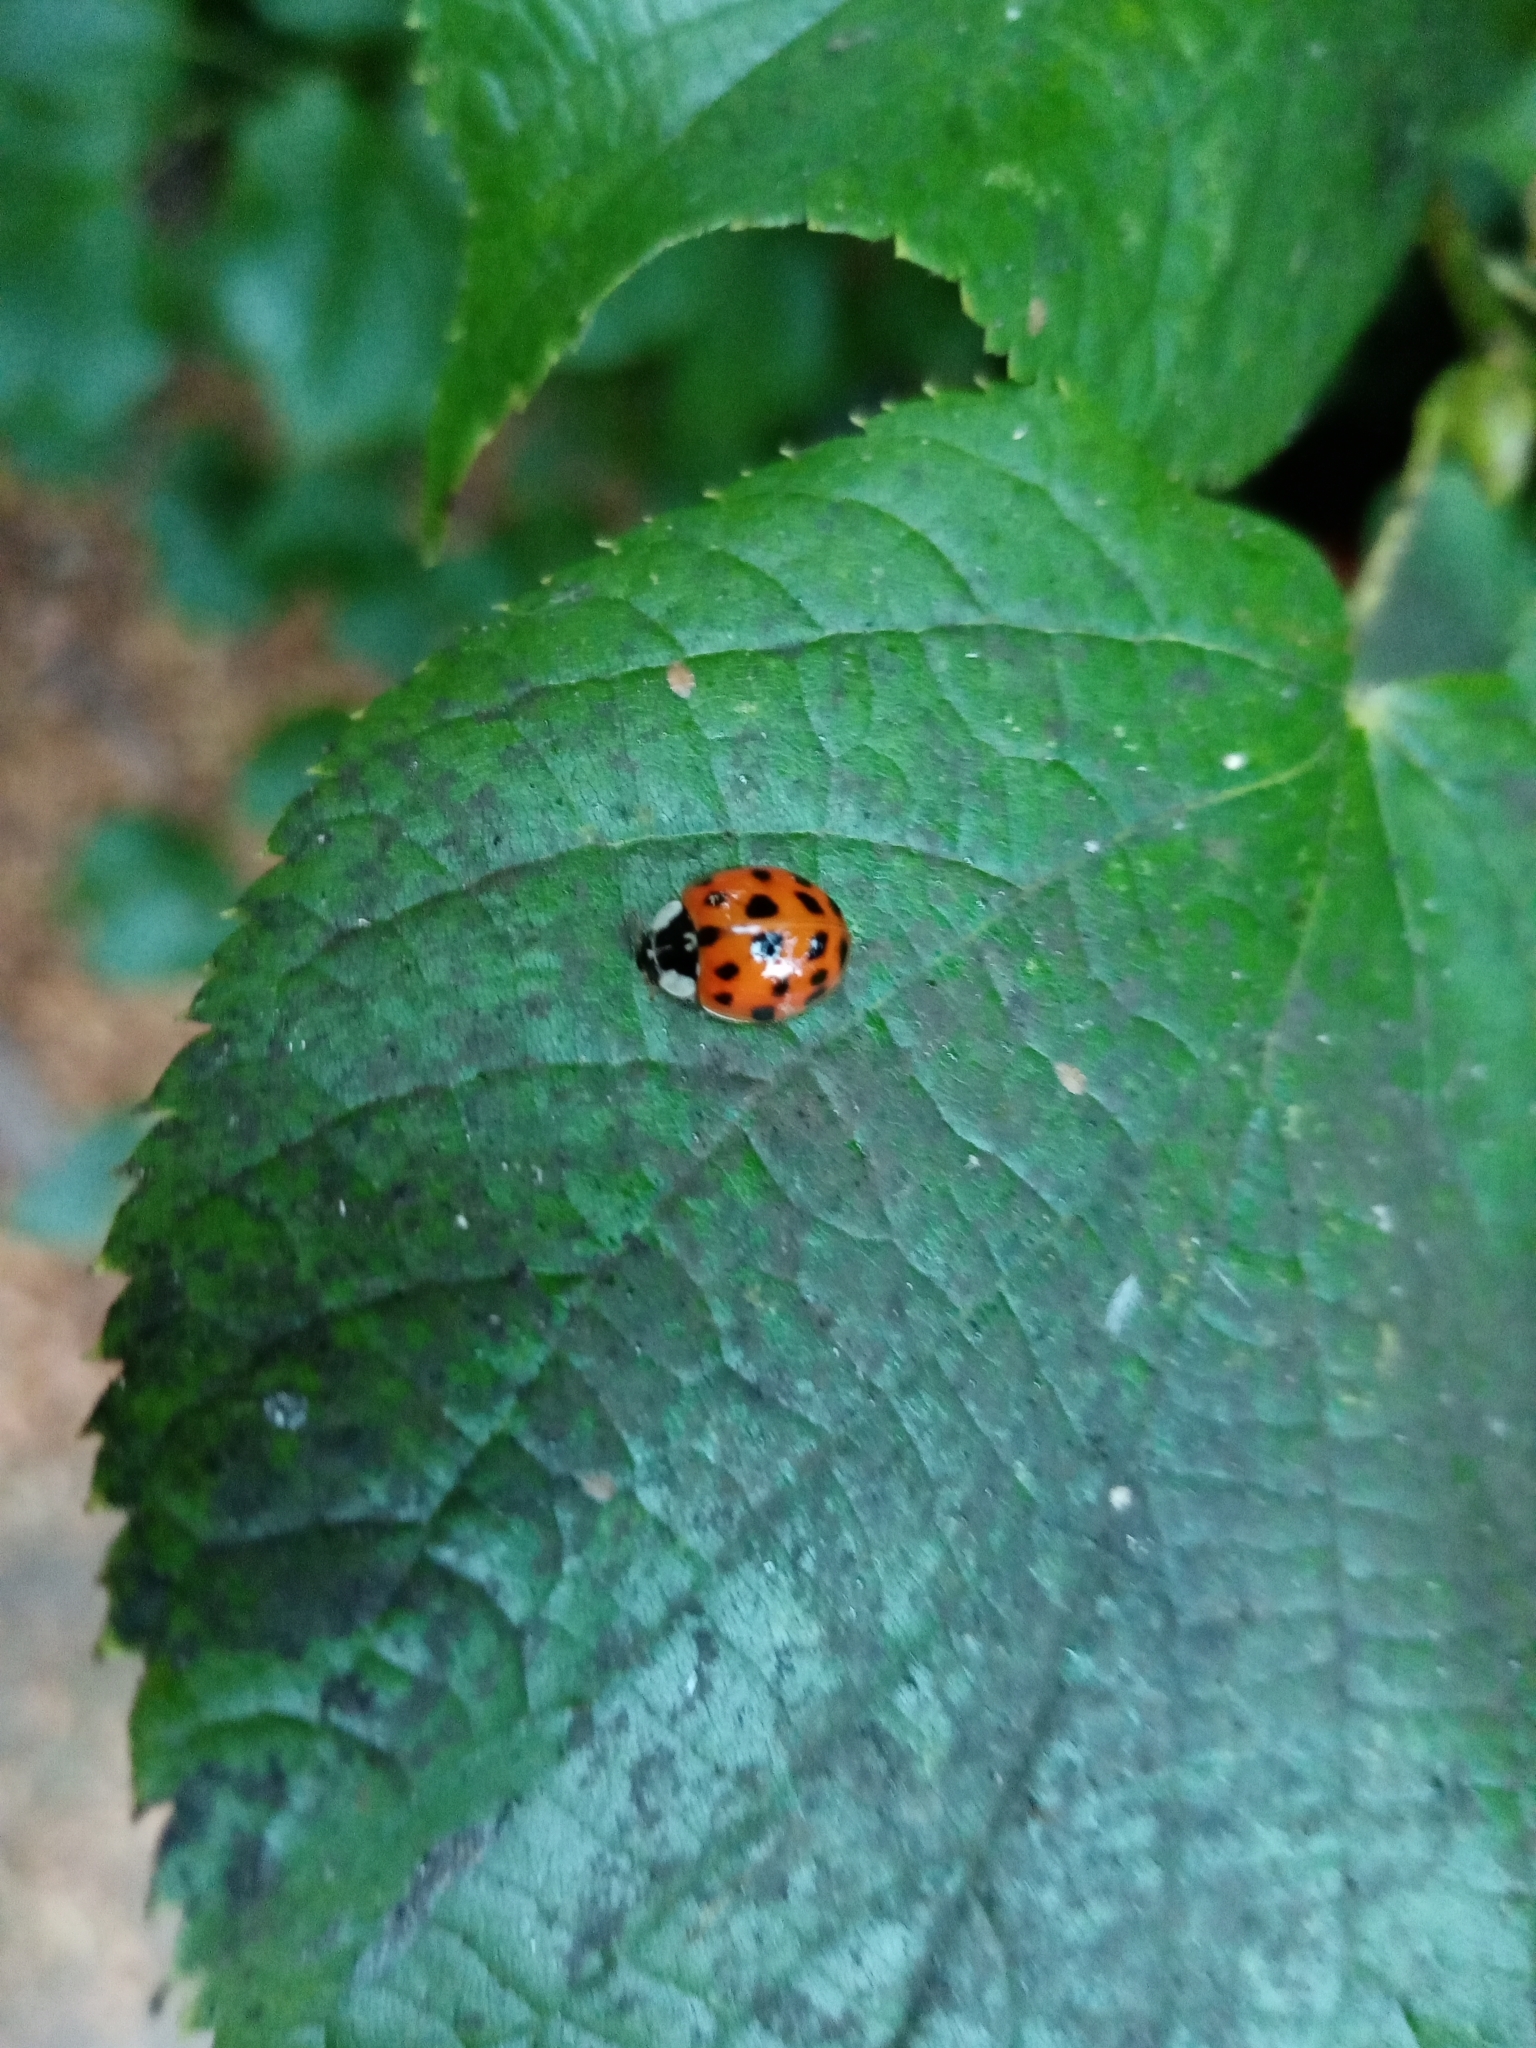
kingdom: Animalia
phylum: Arthropoda
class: Insecta
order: Coleoptera
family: Coccinellidae
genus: Harmonia
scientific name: Harmonia axyridis
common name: Harlequin ladybird
